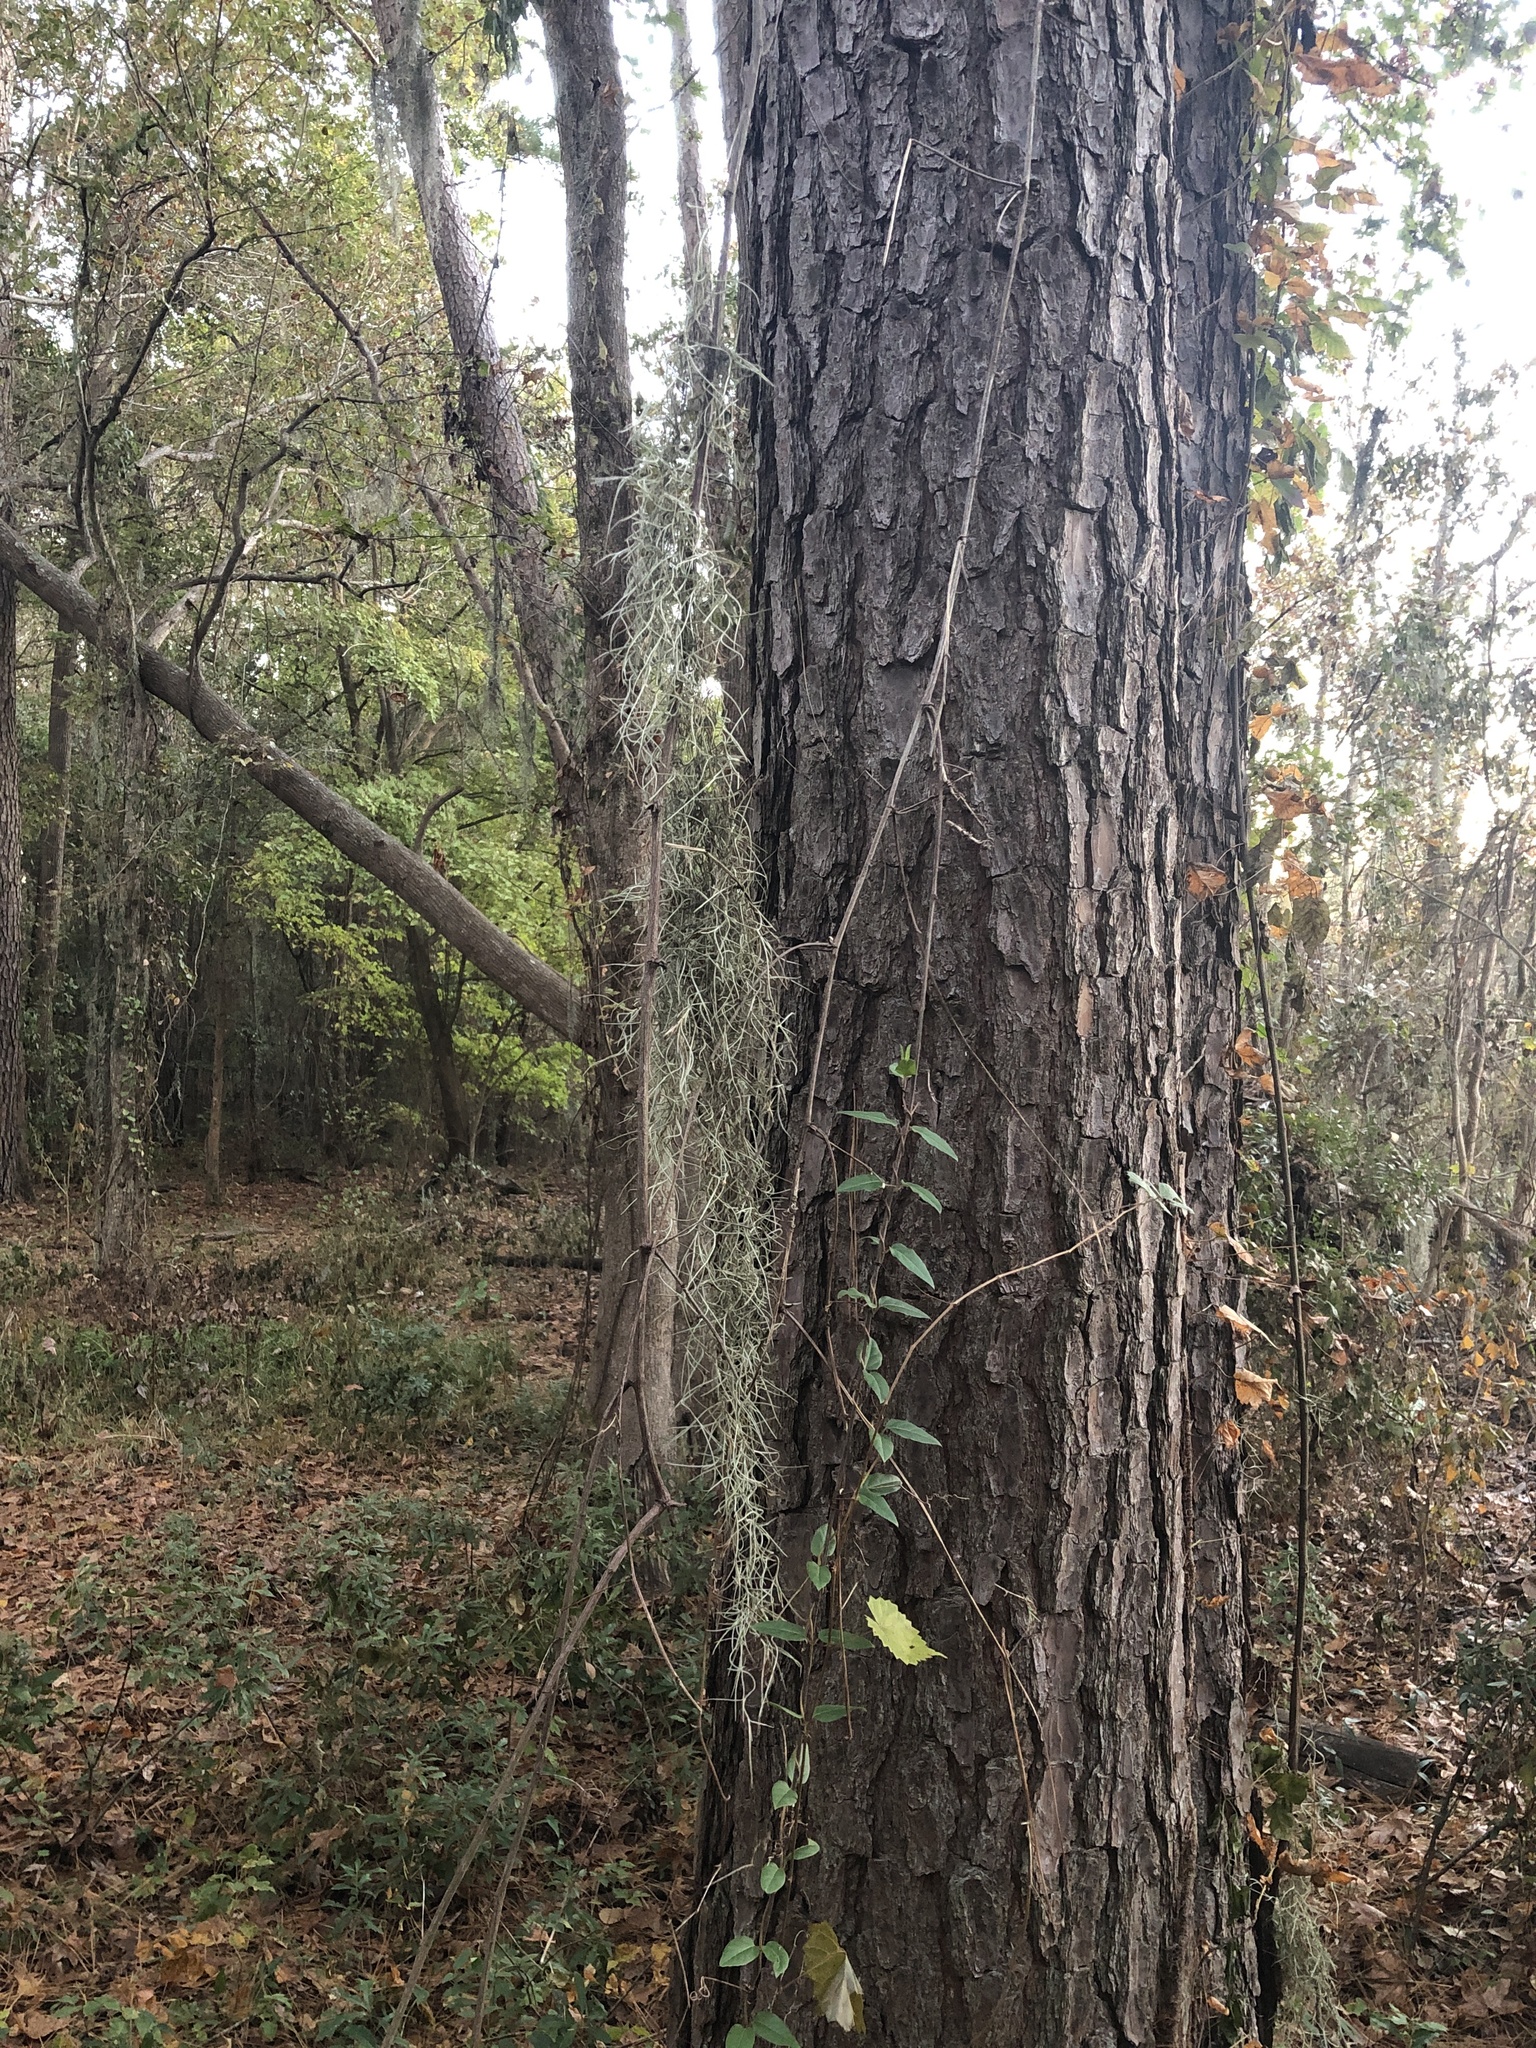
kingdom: Plantae
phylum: Tracheophyta
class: Liliopsida
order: Poales
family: Bromeliaceae
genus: Tillandsia
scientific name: Tillandsia usneoides
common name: Spanish moss
